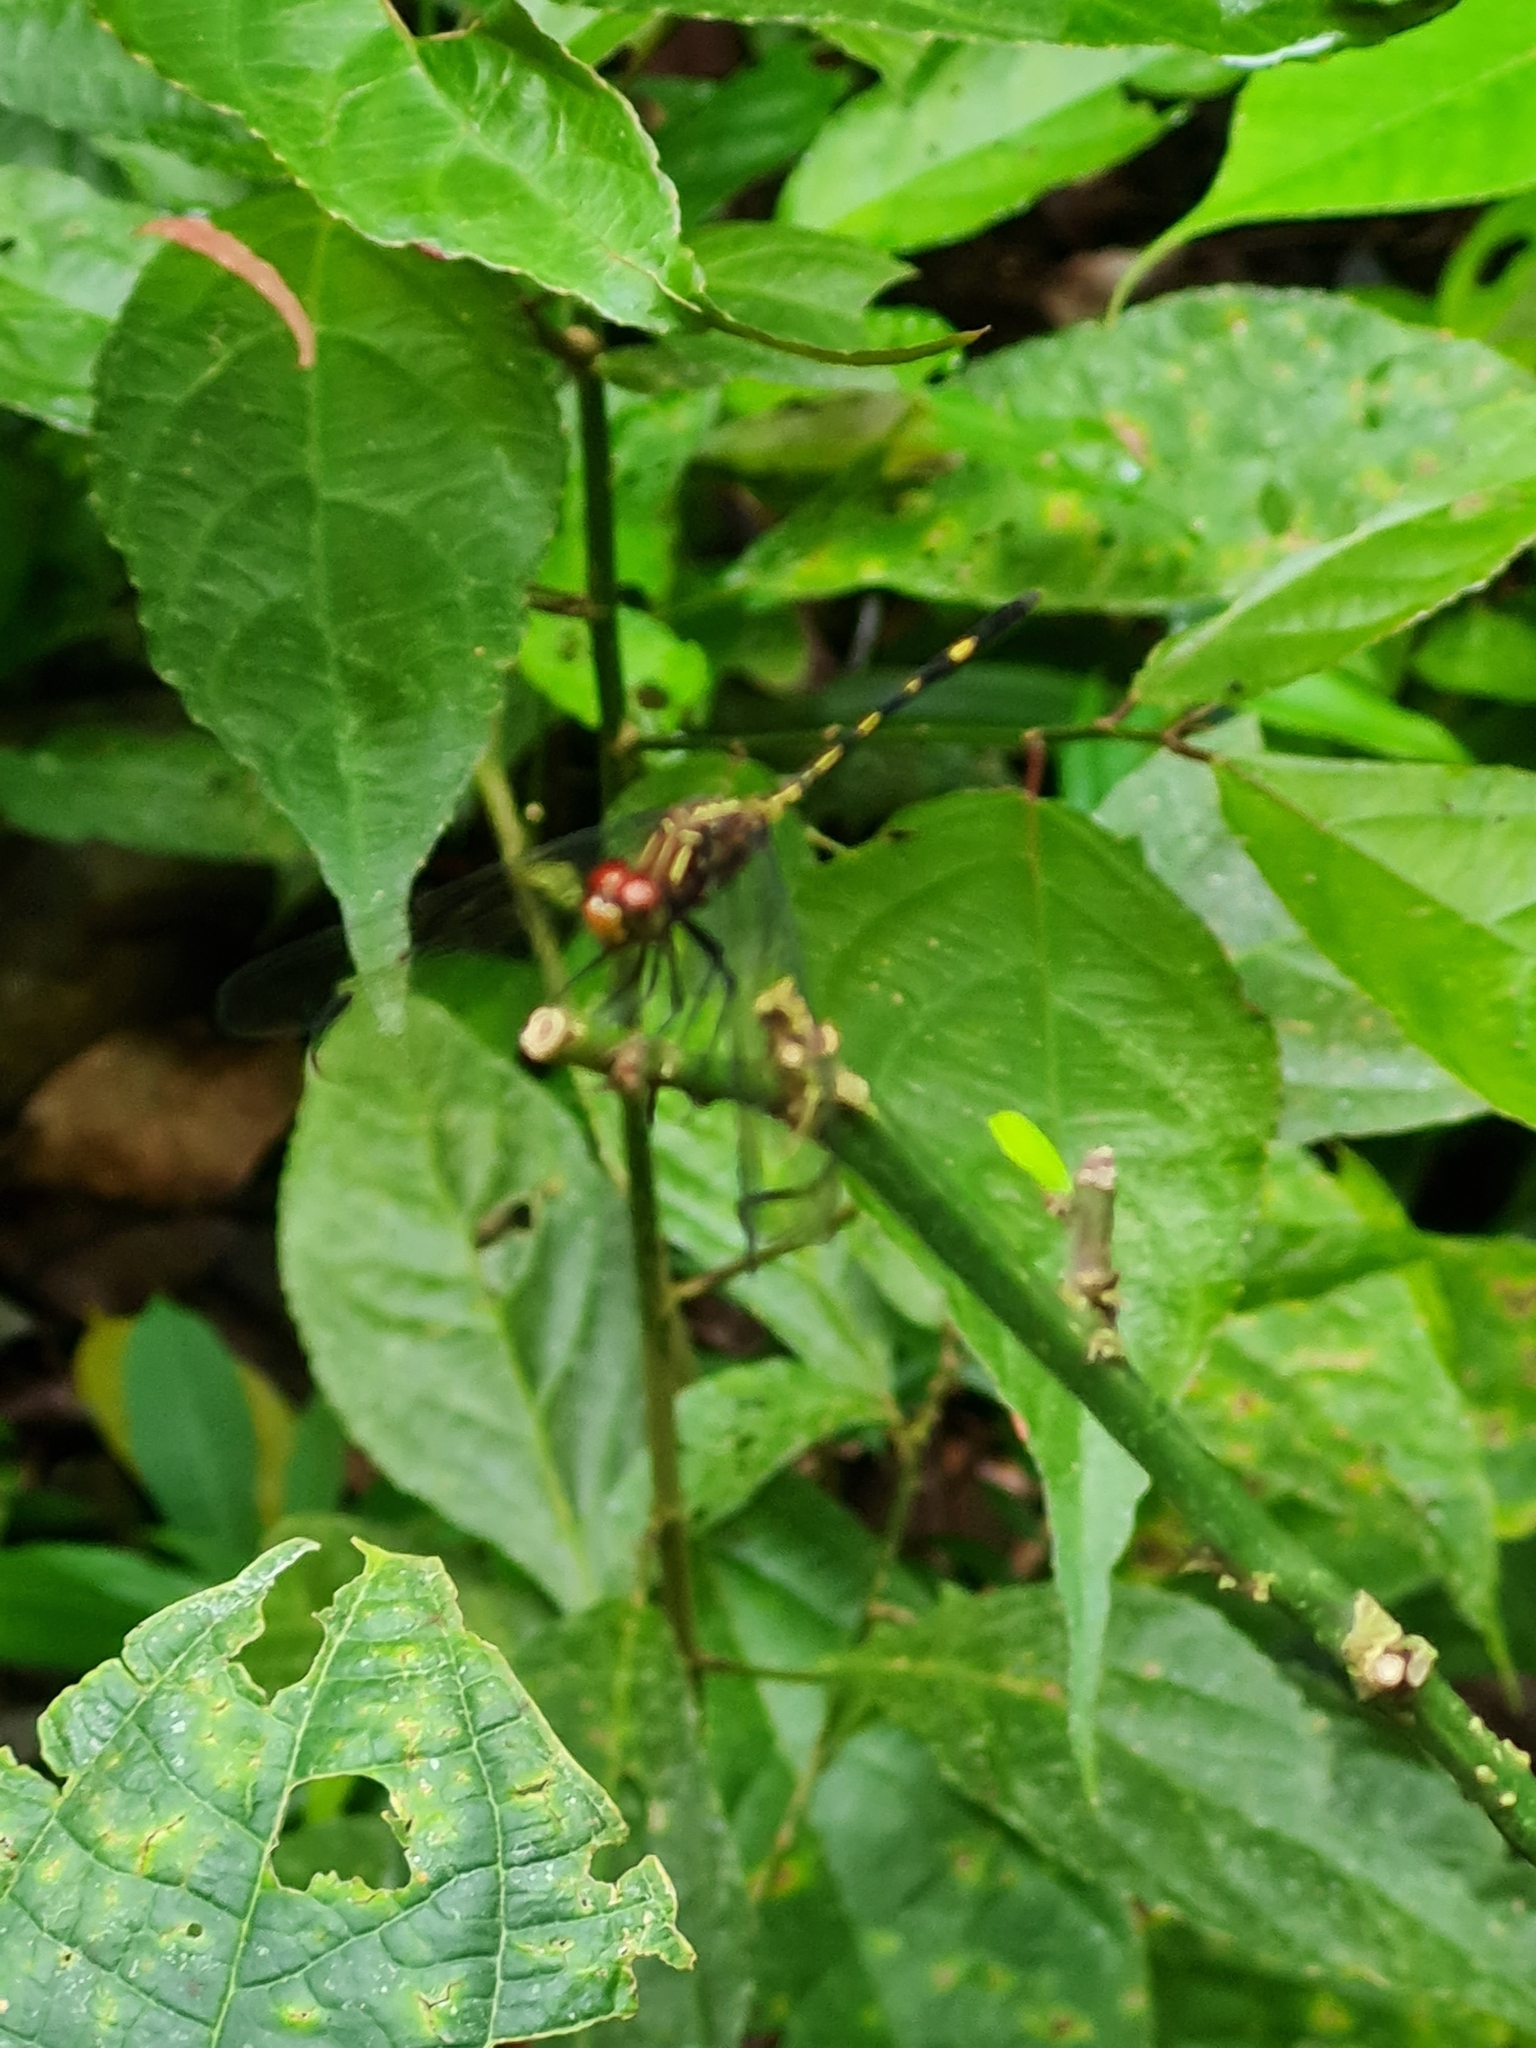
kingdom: Animalia
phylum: Arthropoda
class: Insecta
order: Odonata
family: Libellulidae
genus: Dythemis
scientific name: Dythemis sterilis
